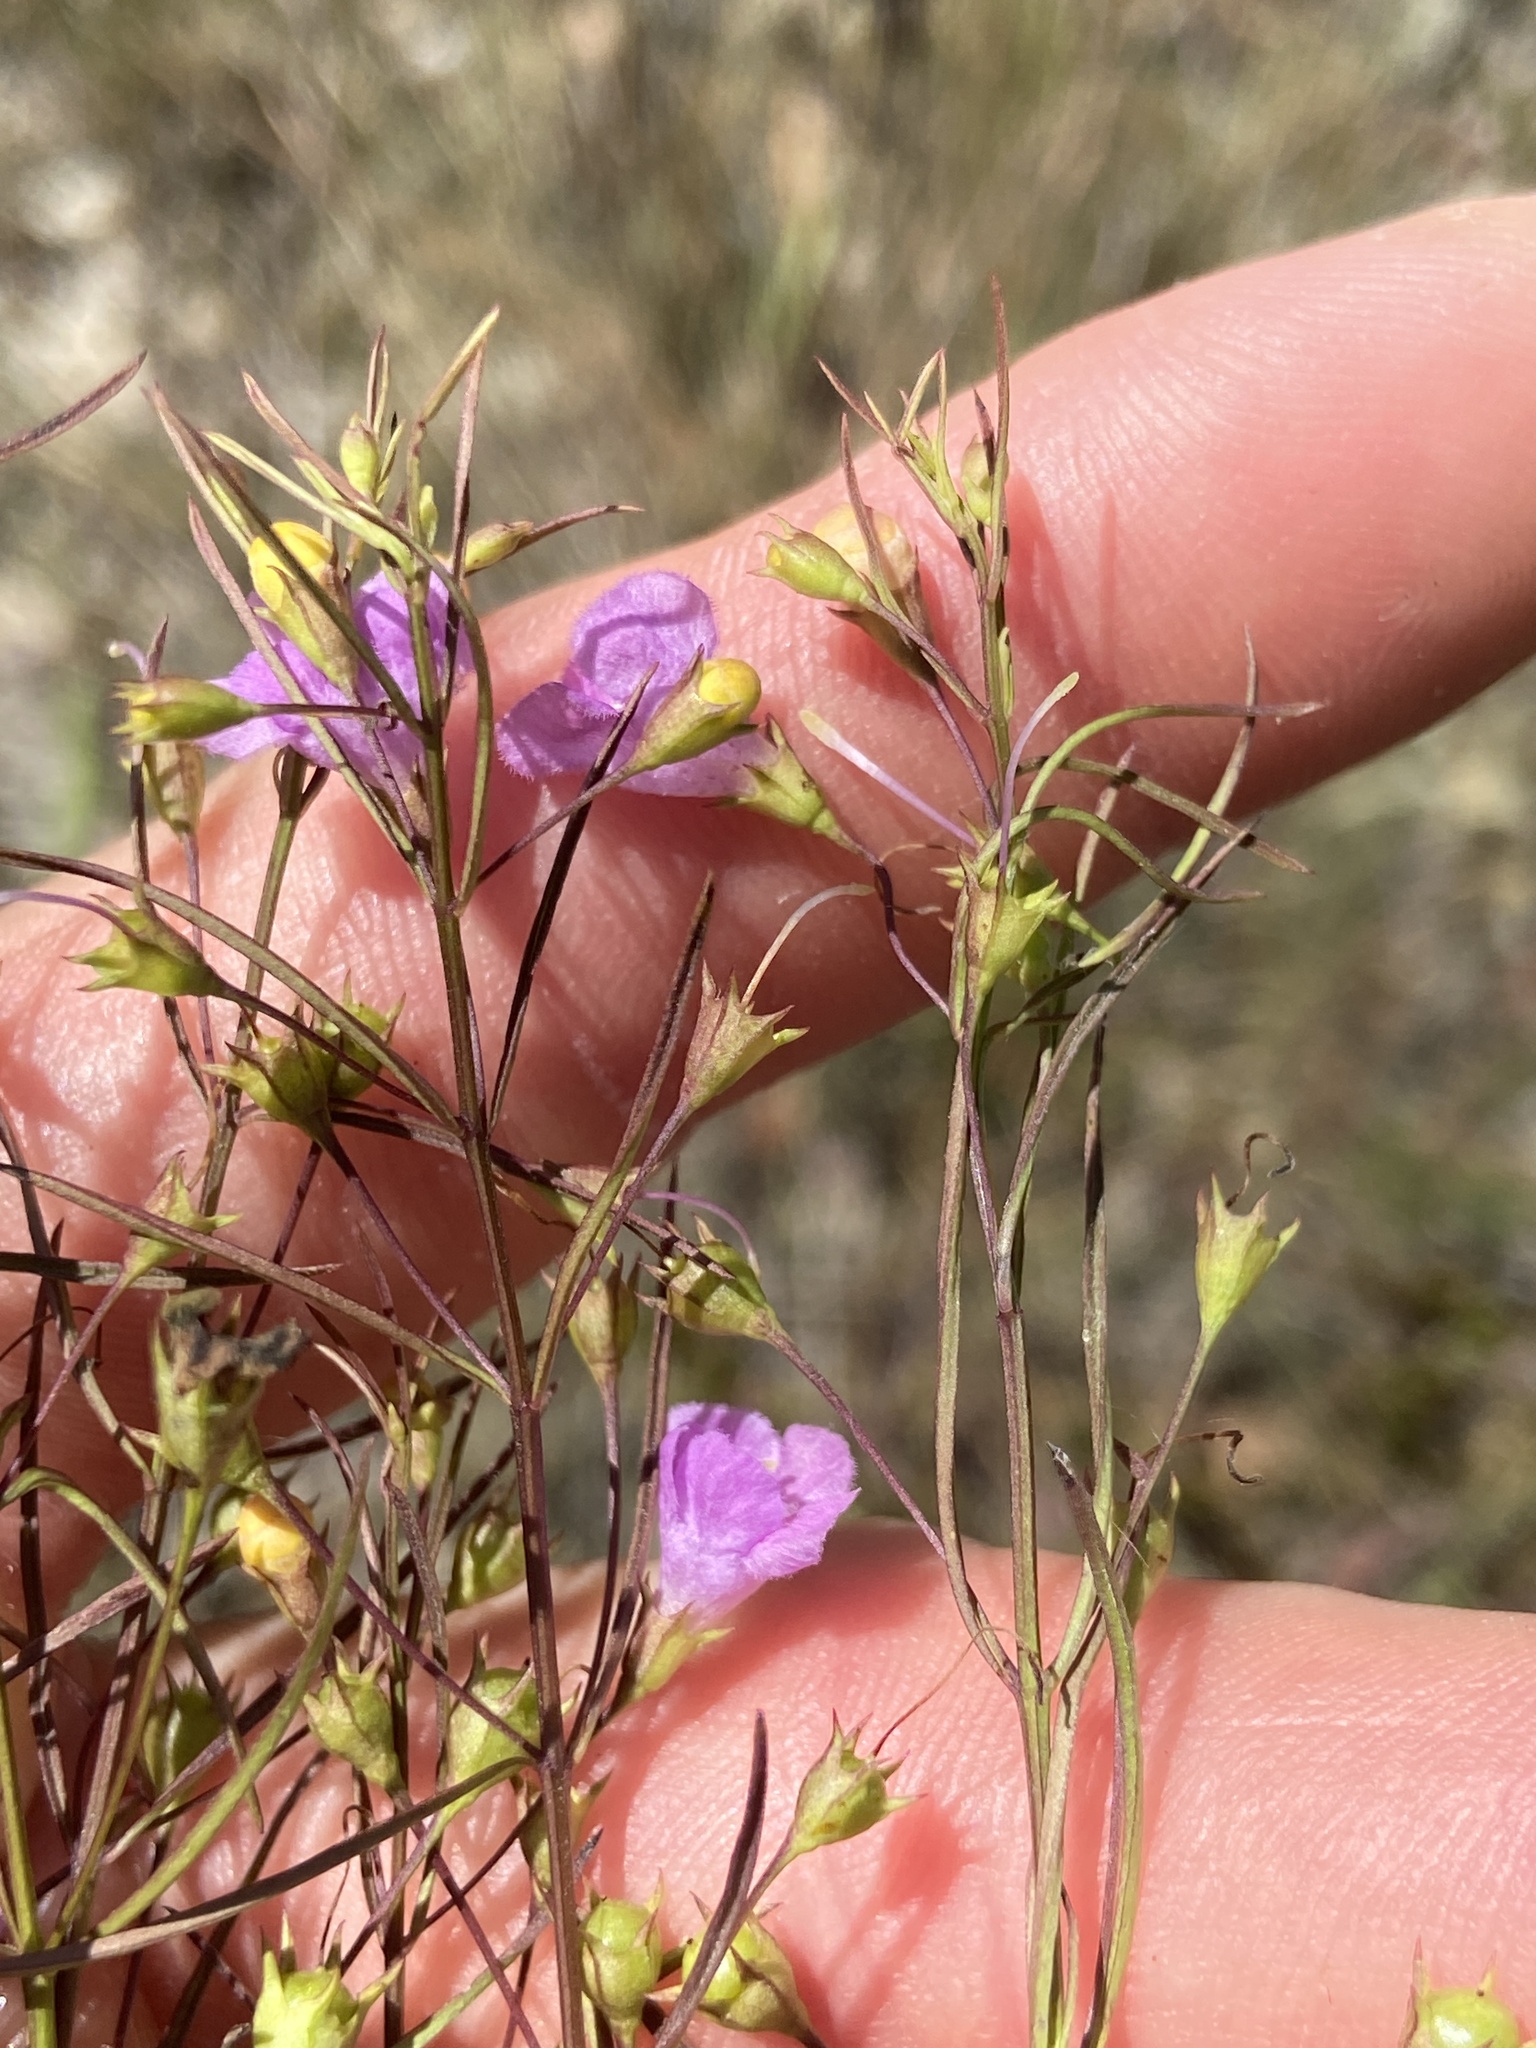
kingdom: Plantae
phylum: Tracheophyta
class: Magnoliopsida
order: Lamiales
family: Orobanchaceae
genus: Agalinis
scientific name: Agalinis tenuifolia
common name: Slender agalinis
